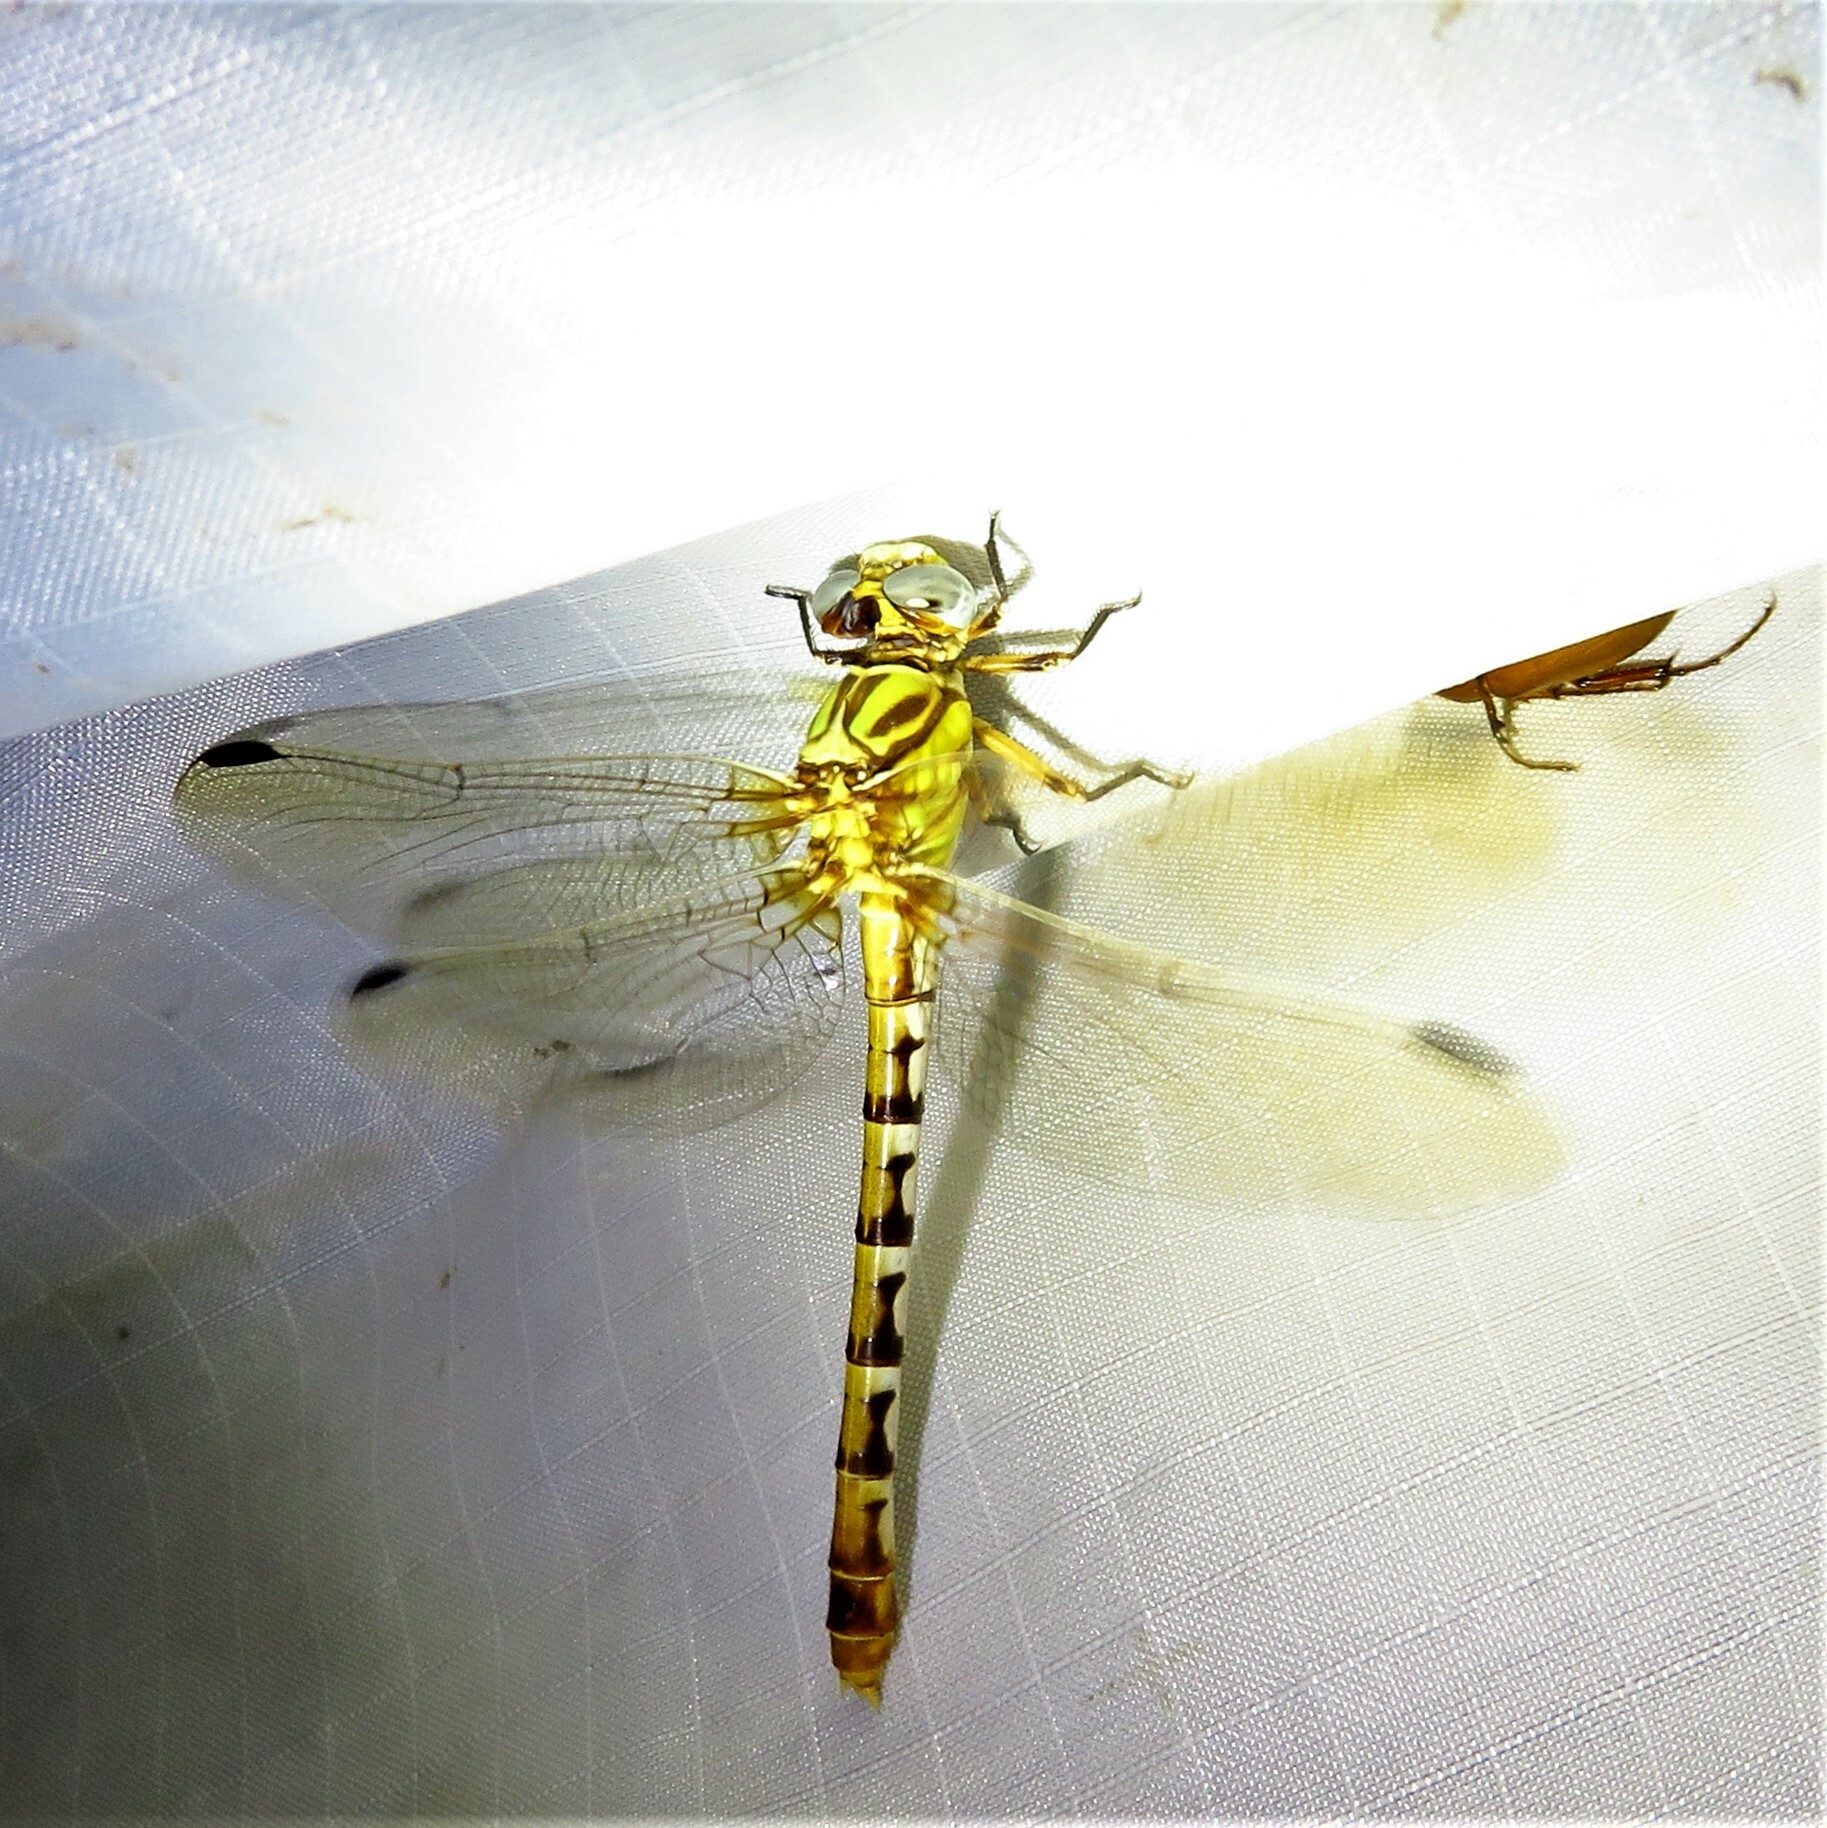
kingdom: Animalia
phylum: Arthropoda
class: Insecta
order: Odonata
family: Gomphidae
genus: Erpetogomphus
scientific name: Erpetogomphus designatus
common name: Eastern ringtail
